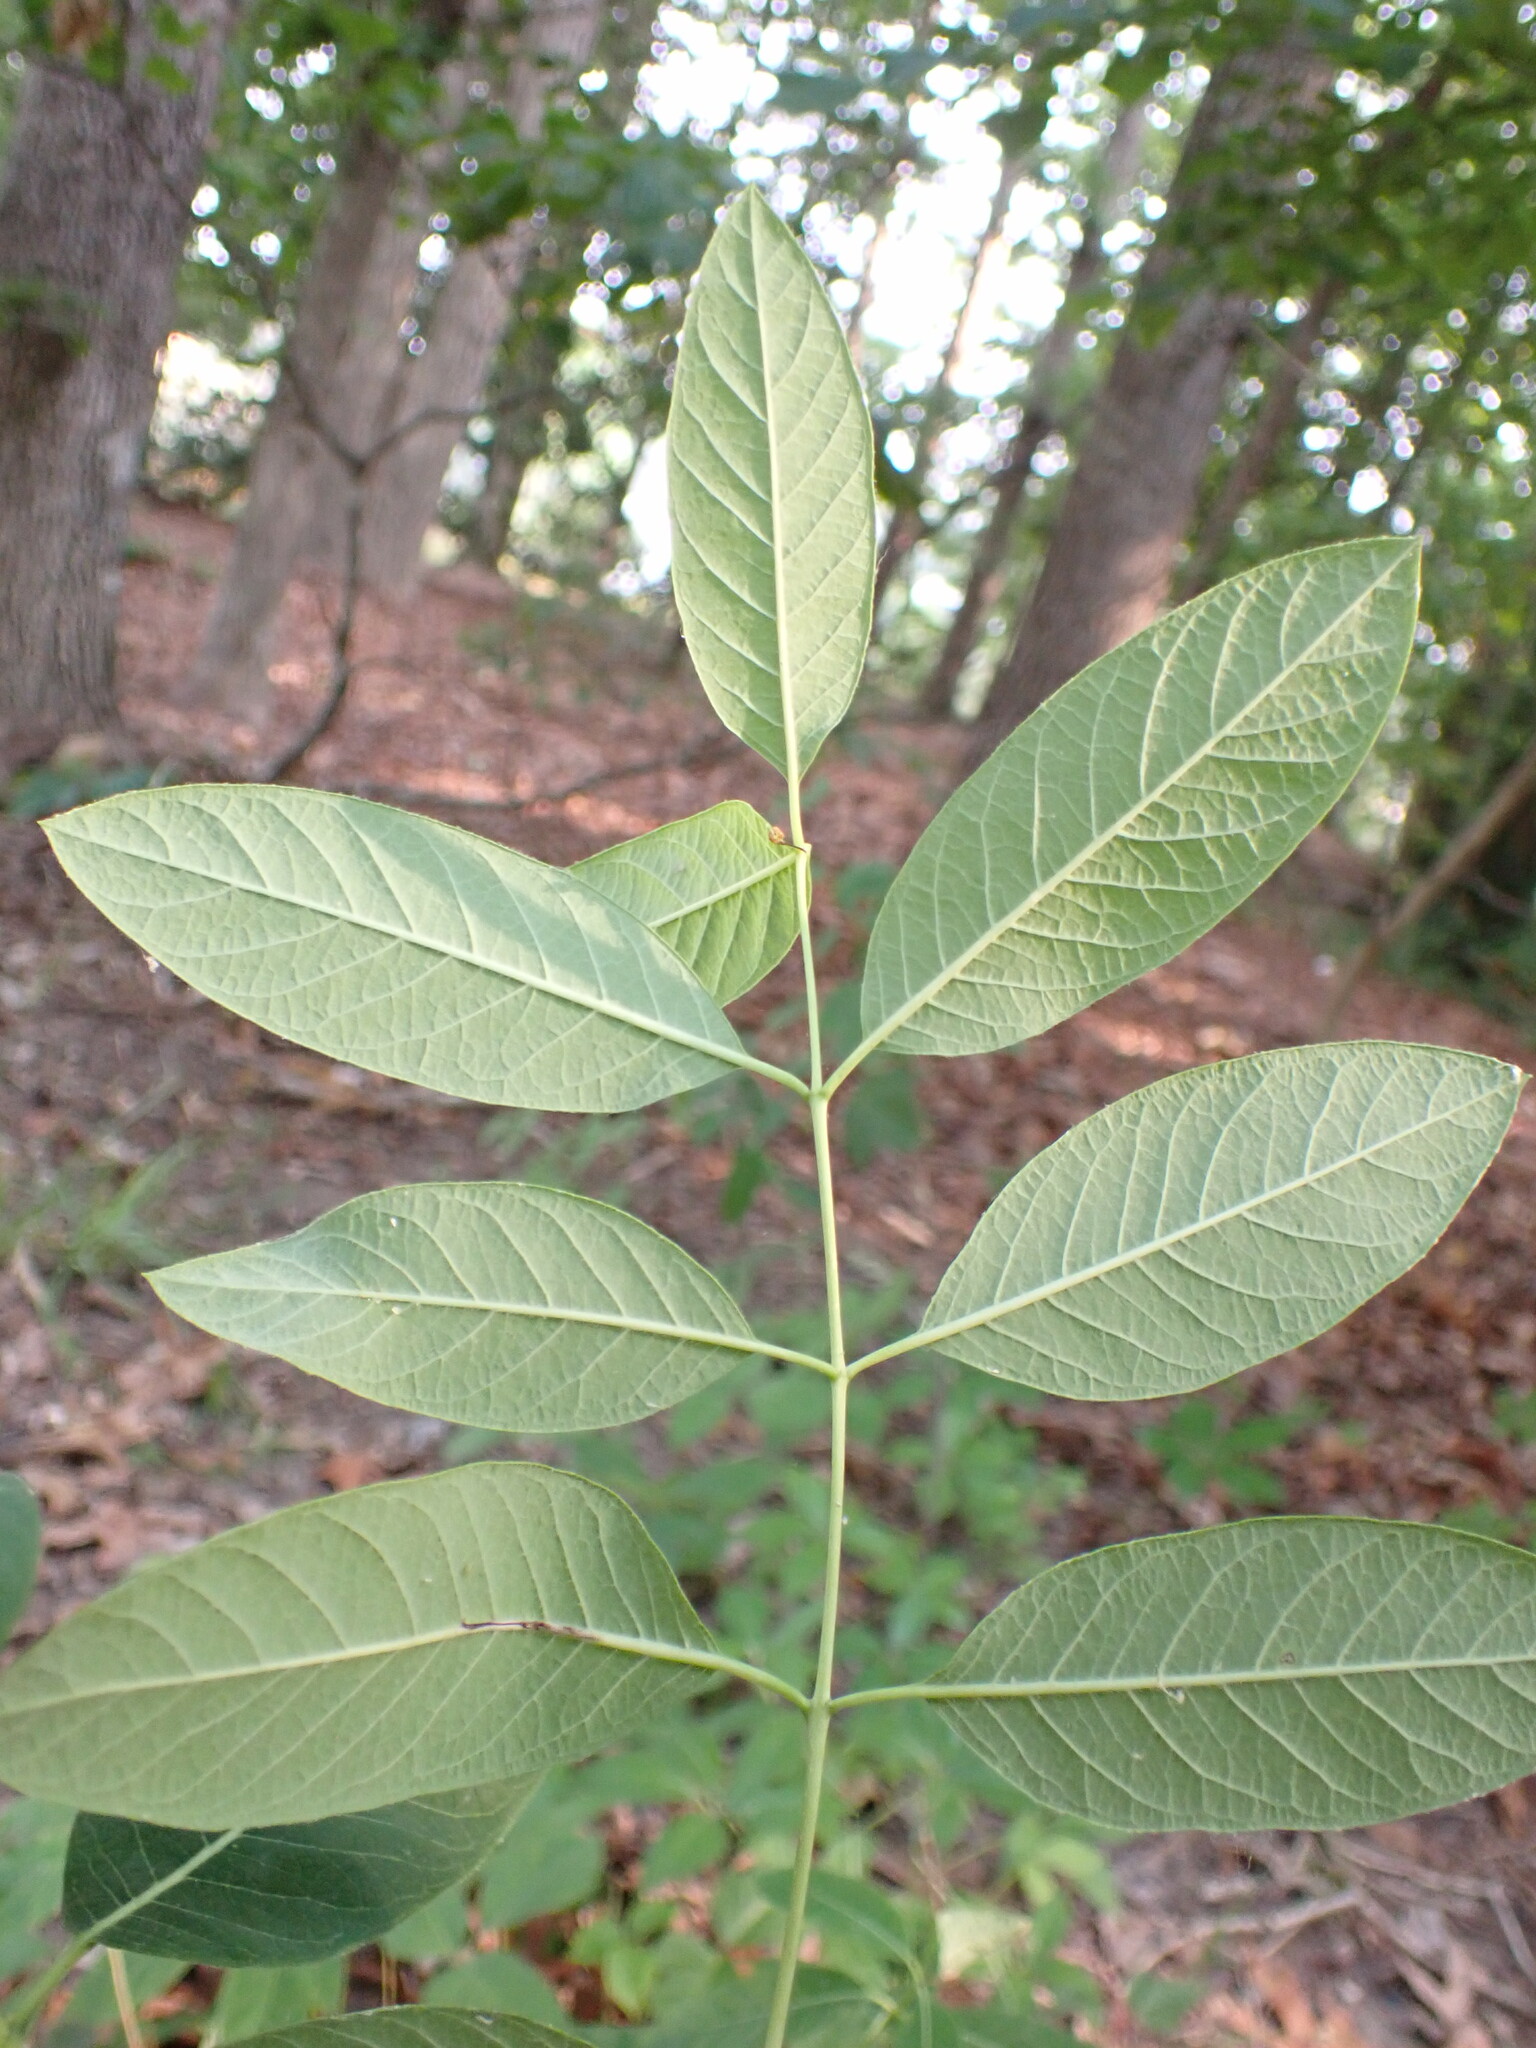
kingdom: Plantae
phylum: Tracheophyta
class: Magnoliopsida
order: Gentianales
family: Apocynaceae
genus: Apocynum
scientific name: Apocynum cannabinum
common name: Hemp dogbane
